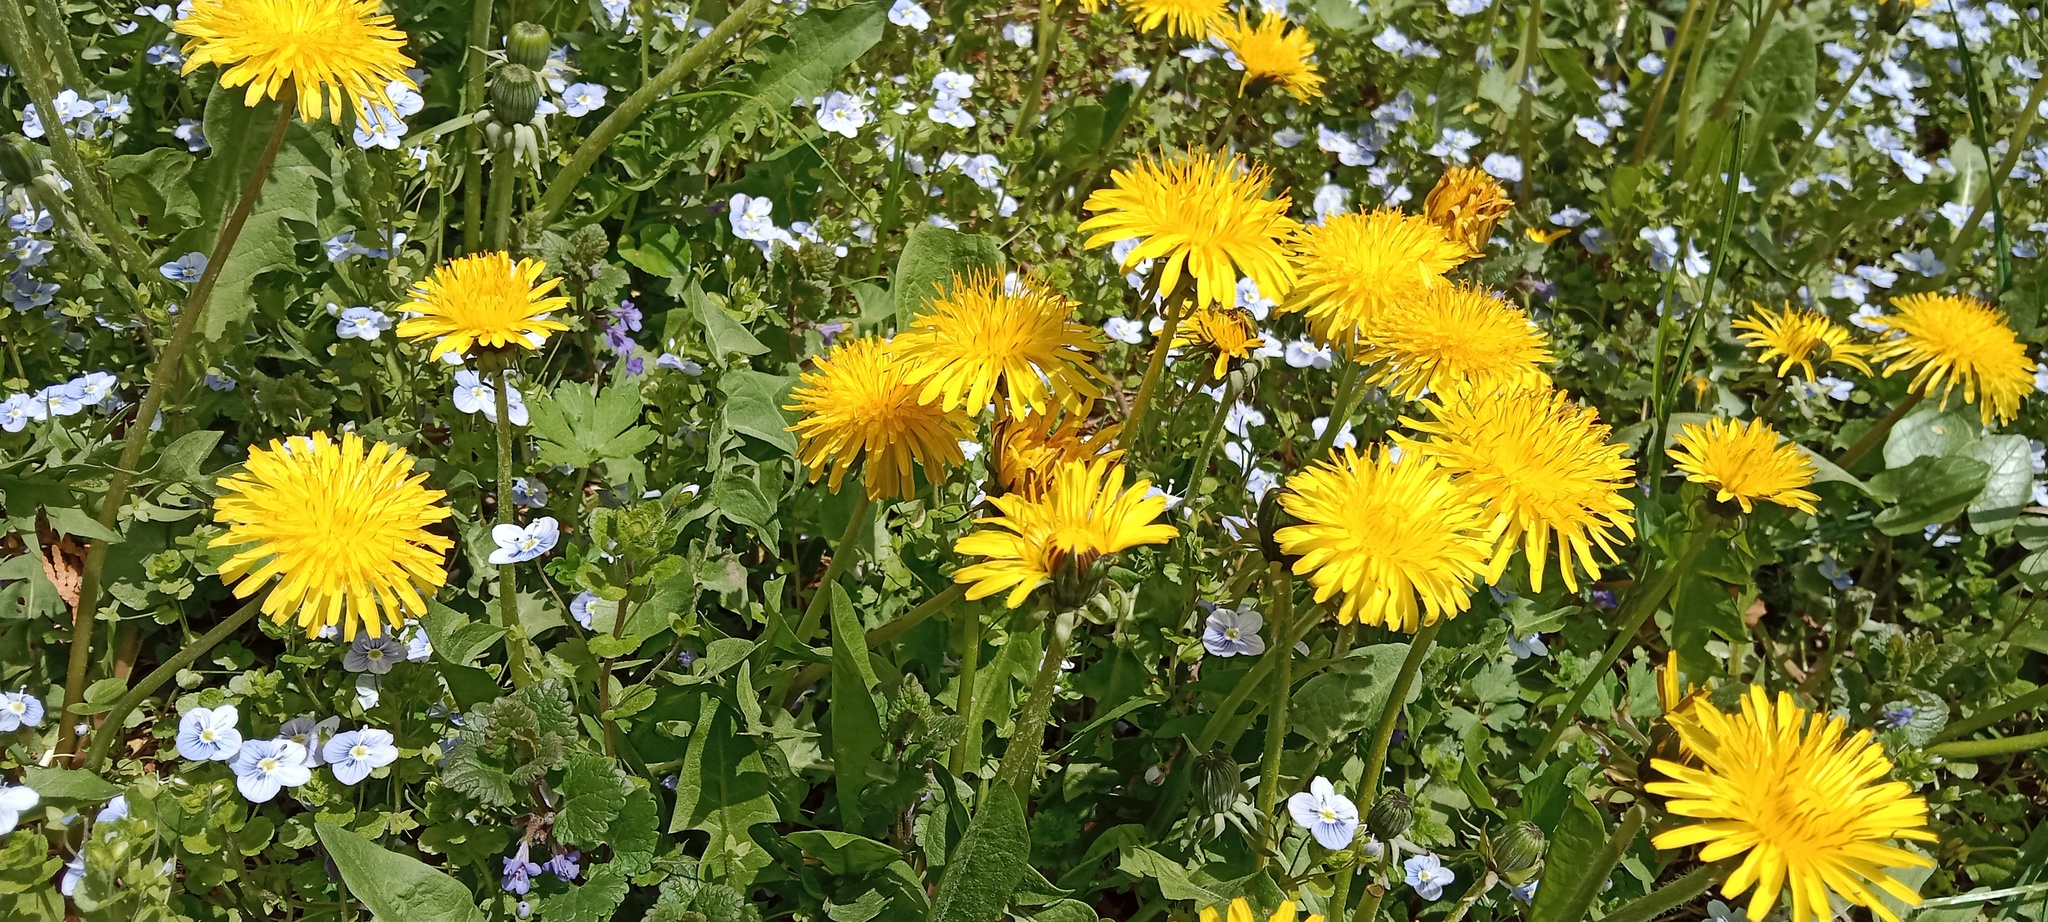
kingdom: Plantae
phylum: Tracheophyta
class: Magnoliopsida
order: Asterales
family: Asteraceae
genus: Taraxacum
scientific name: Taraxacum officinale
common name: Common dandelion
